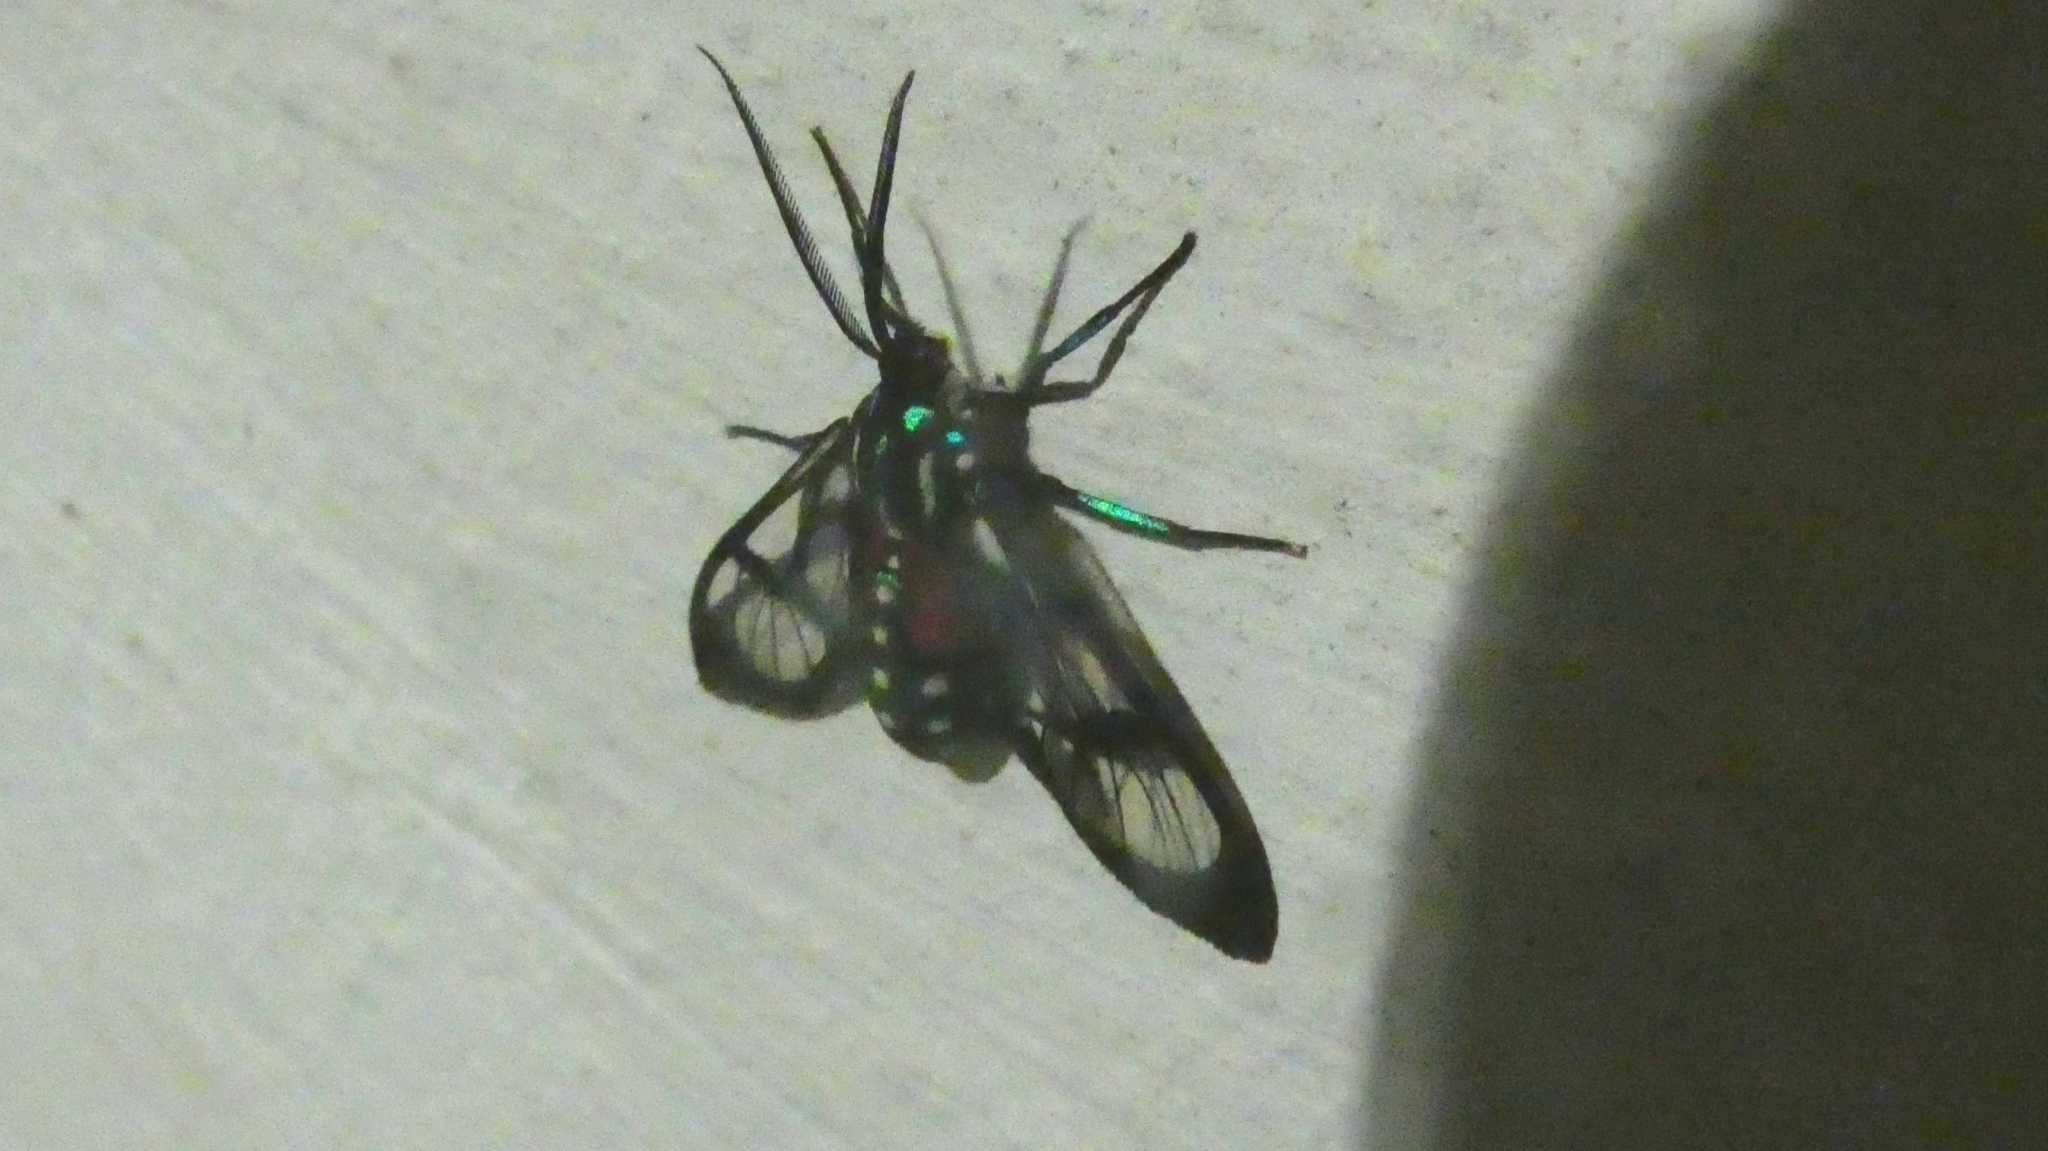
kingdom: Animalia
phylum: Arthropoda
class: Insecta
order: Lepidoptera
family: Erebidae
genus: Poecilosoma
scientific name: Poecilosoma eone
